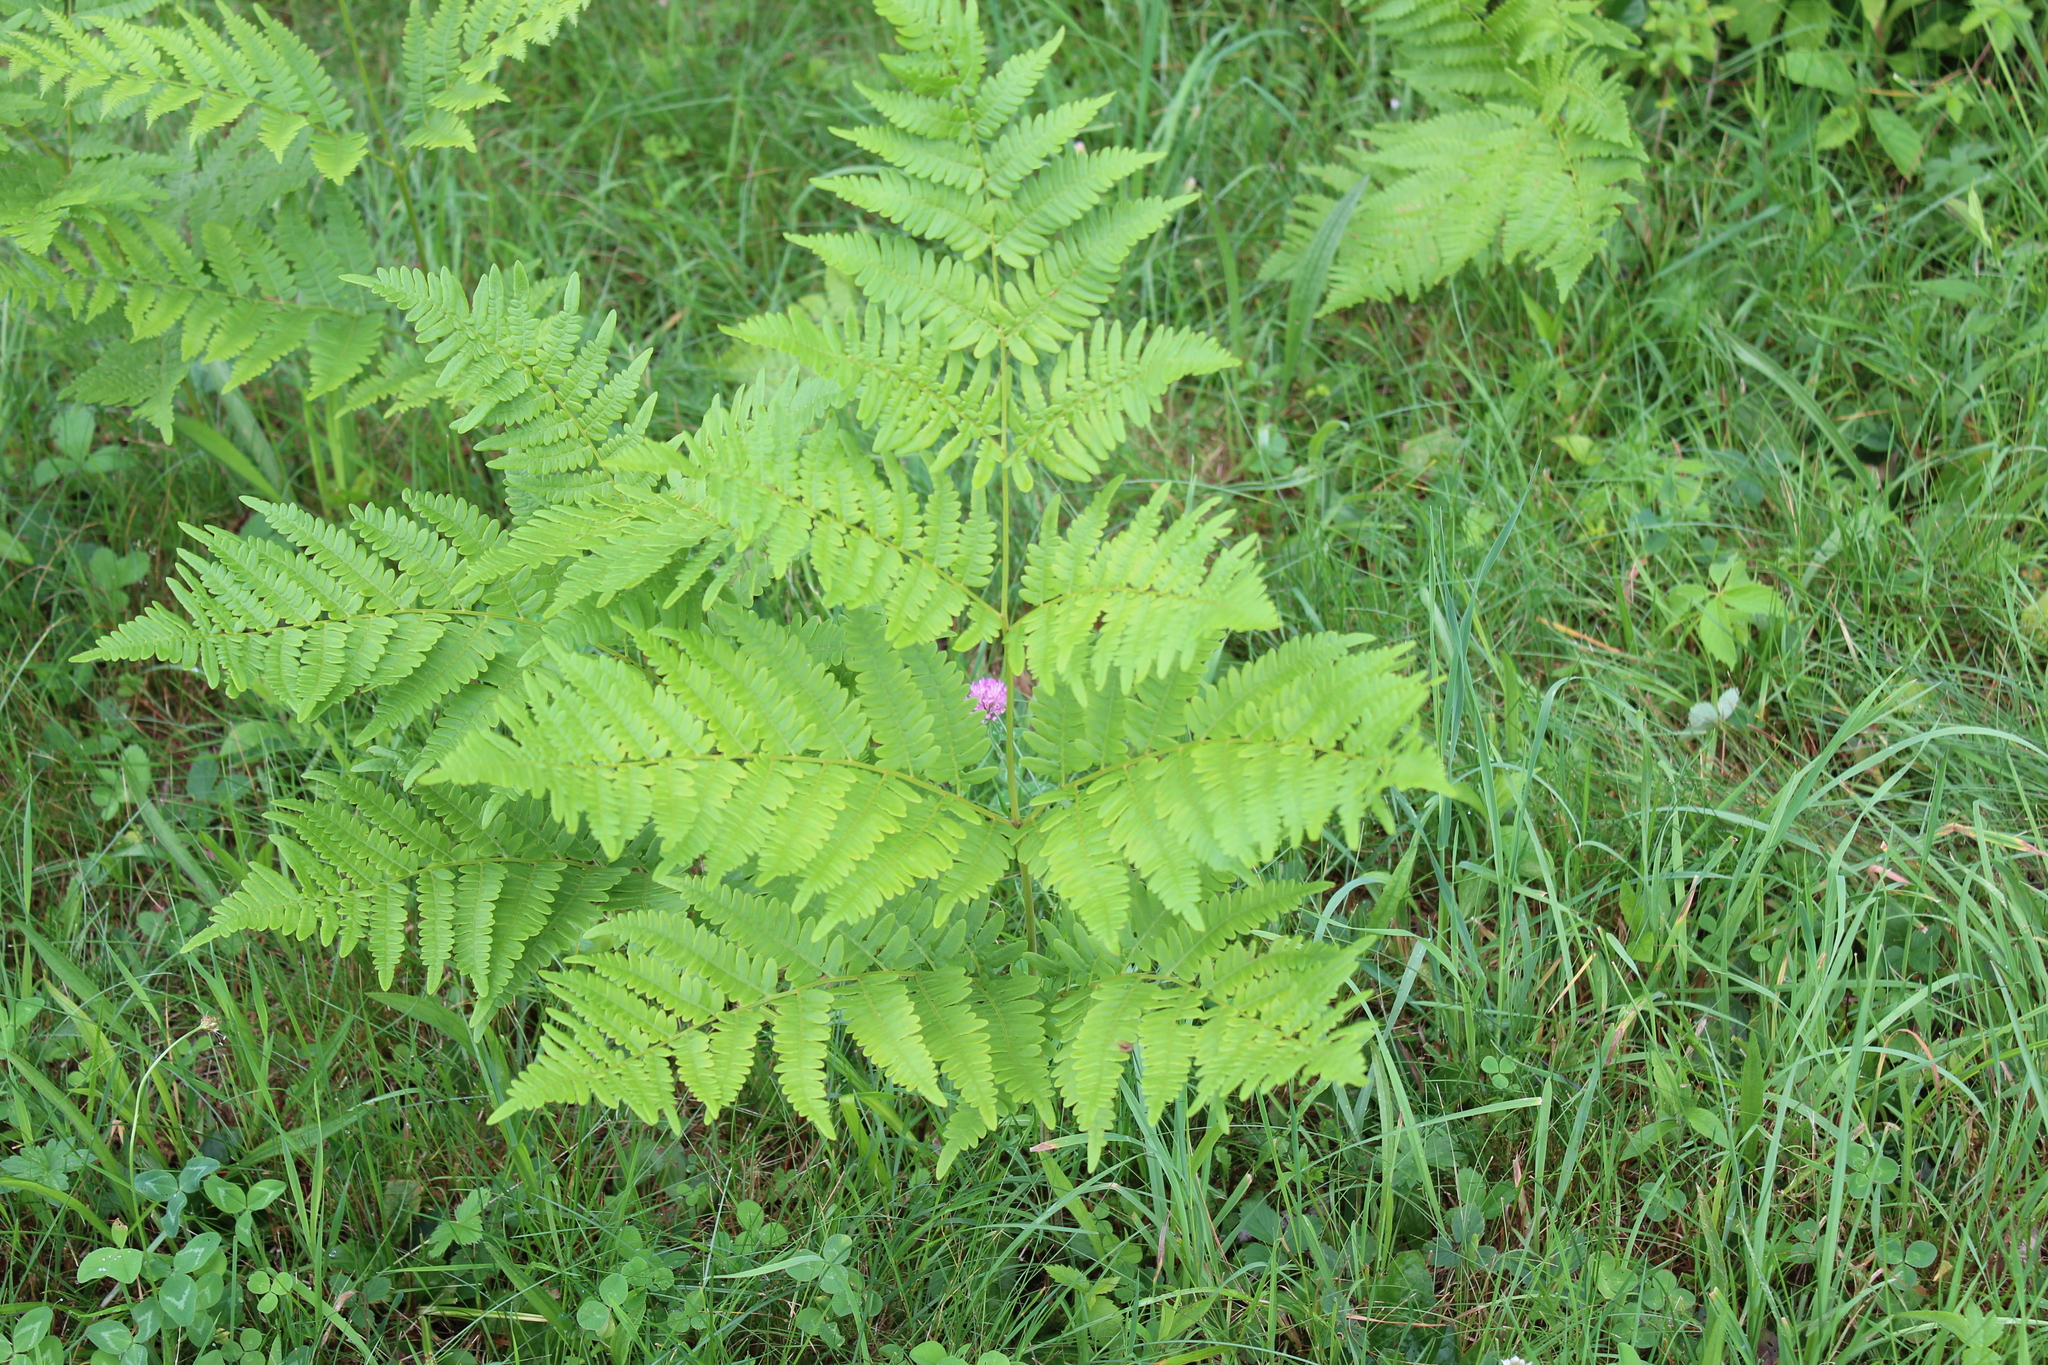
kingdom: Plantae
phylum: Tracheophyta
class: Polypodiopsida
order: Polypodiales
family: Dennstaedtiaceae
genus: Pteridium
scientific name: Pteridium aquilinum
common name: Bracken
